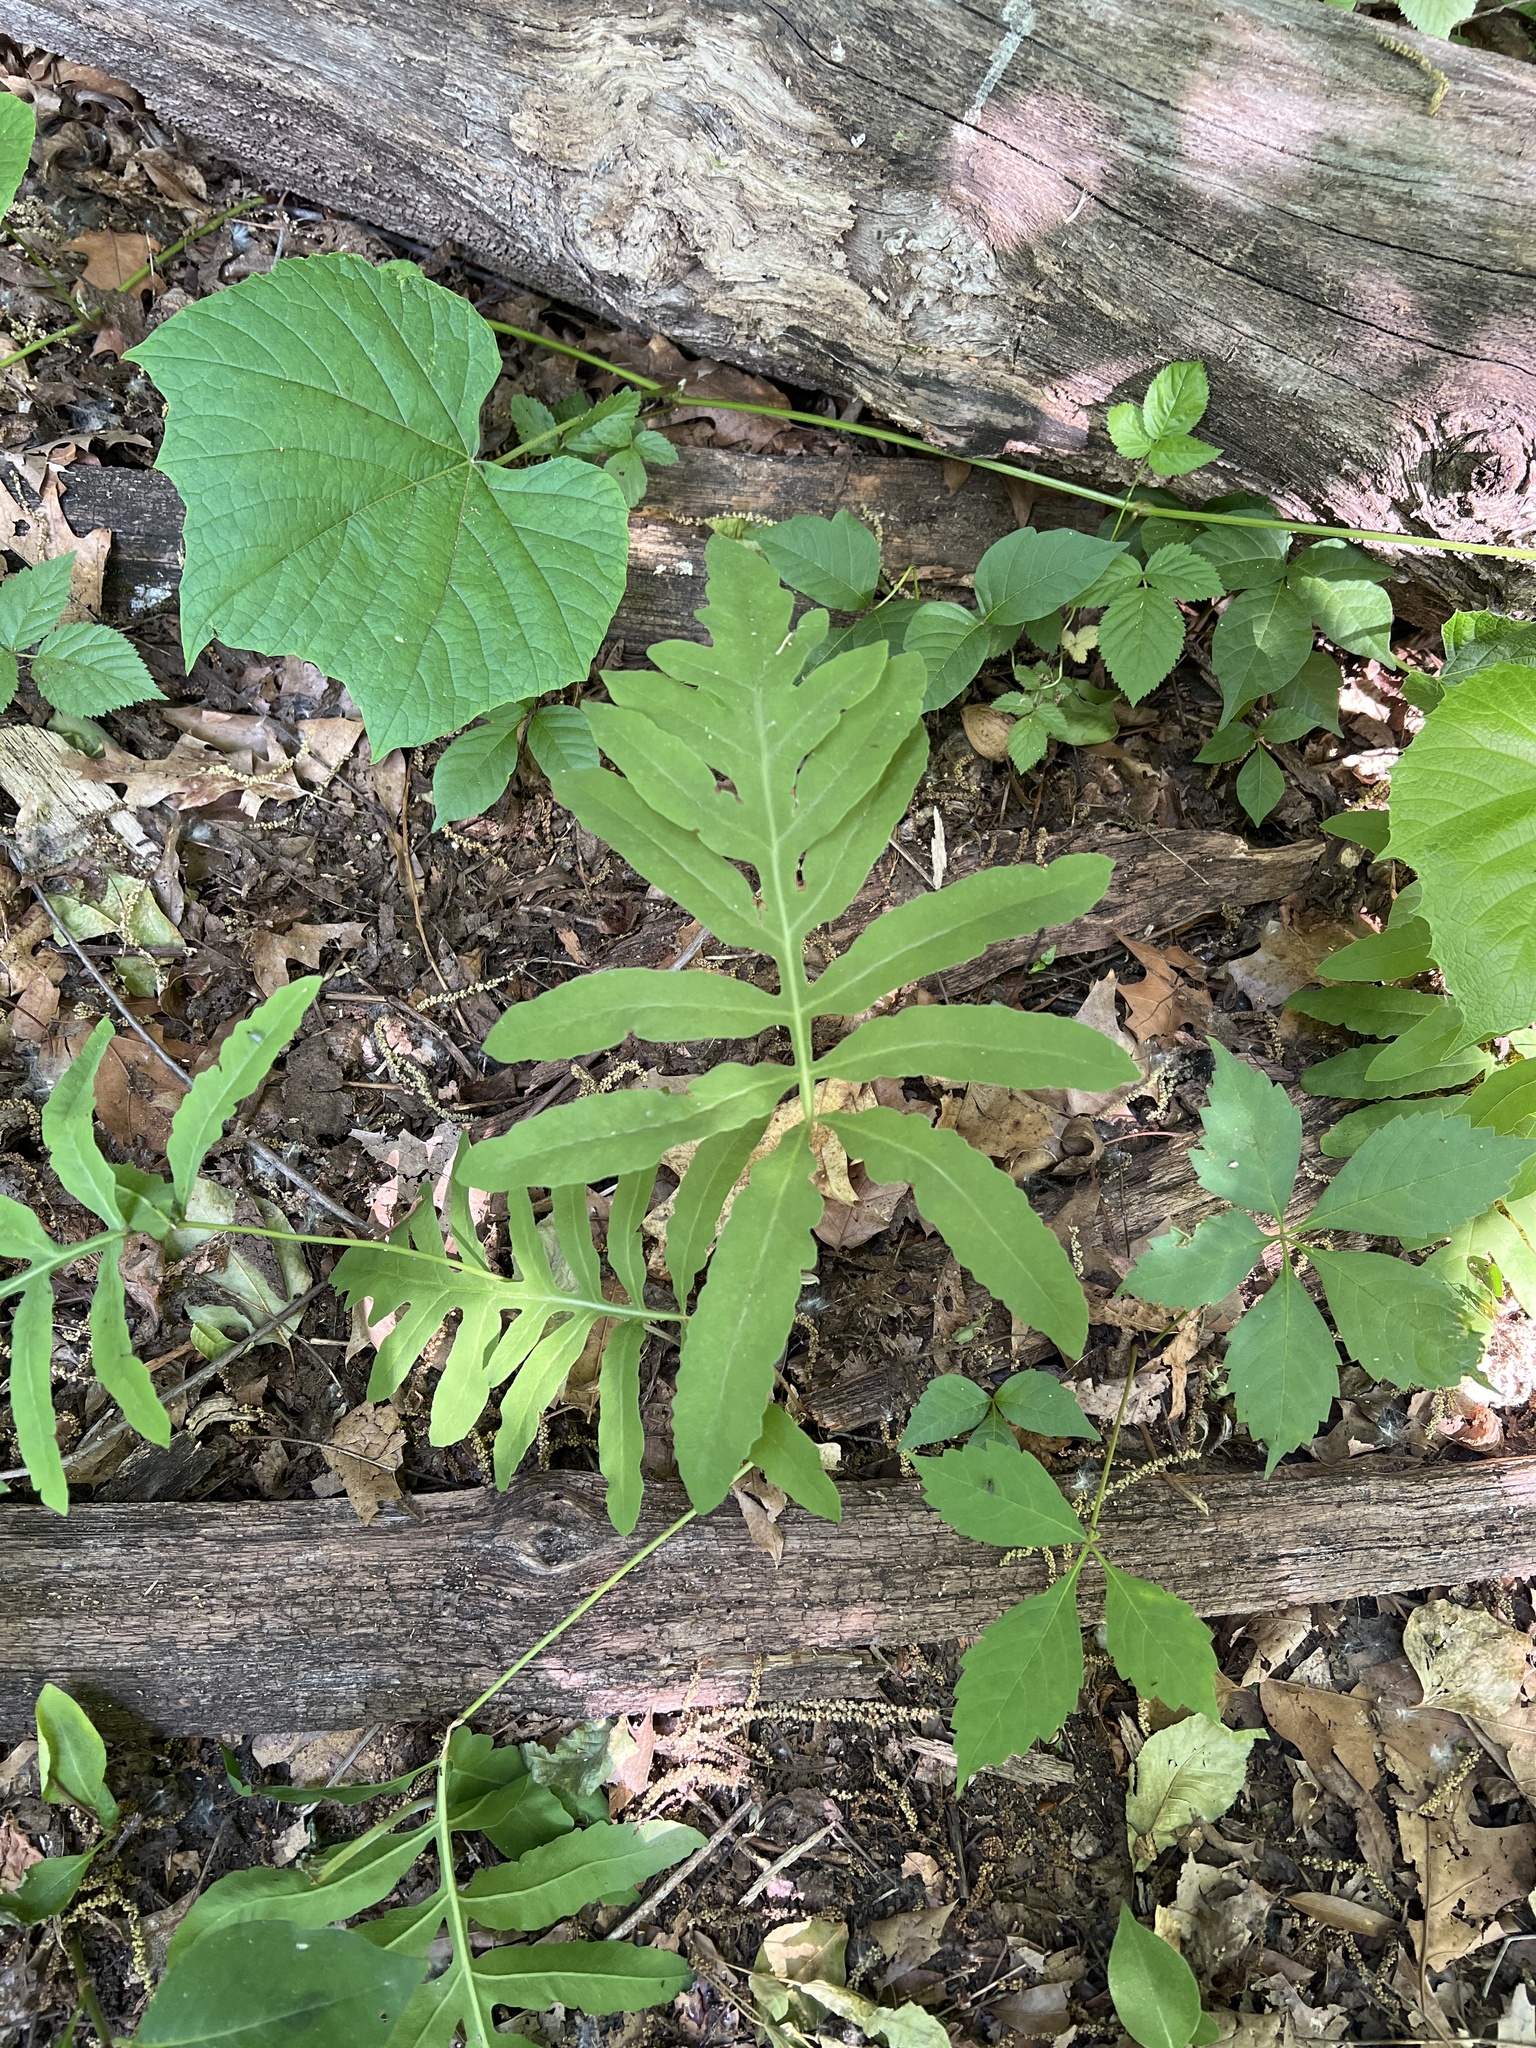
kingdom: Plantae
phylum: Tracheophyta
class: Polypodiopsida
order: Polypodiales
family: Onocleaceae
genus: Onoclea
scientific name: Onoclea sensibilis
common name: Sensitive fern
